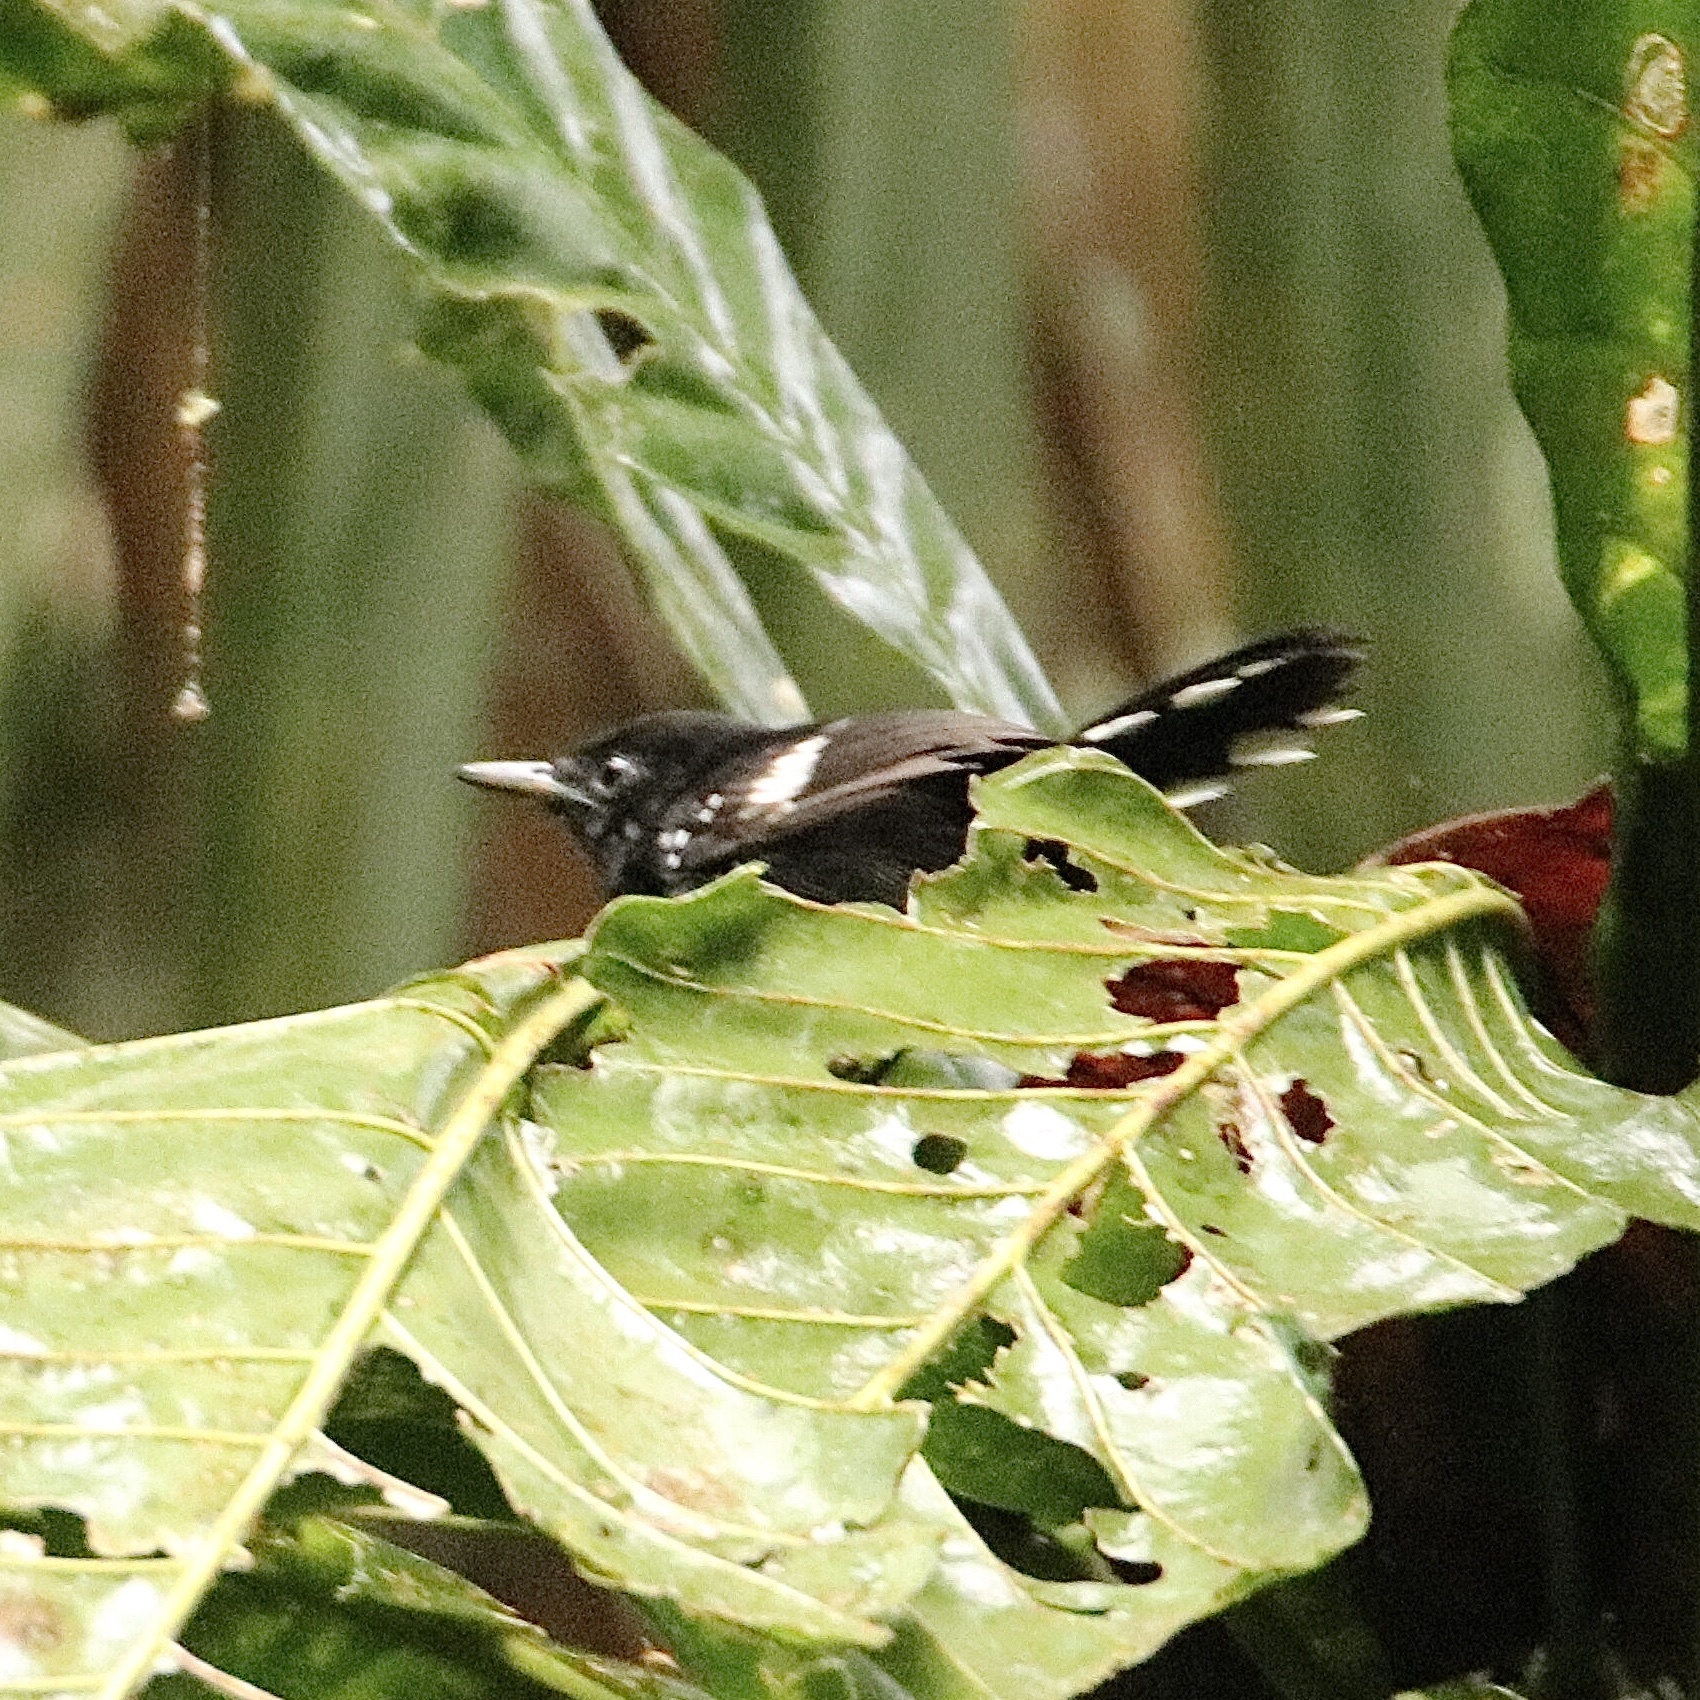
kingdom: Animalia
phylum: Chordata
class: Aves
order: Passeriformes
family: Thamnophilidae
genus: Microrhopias
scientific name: Microrhopias quixensis
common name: Dot-winged antwren
